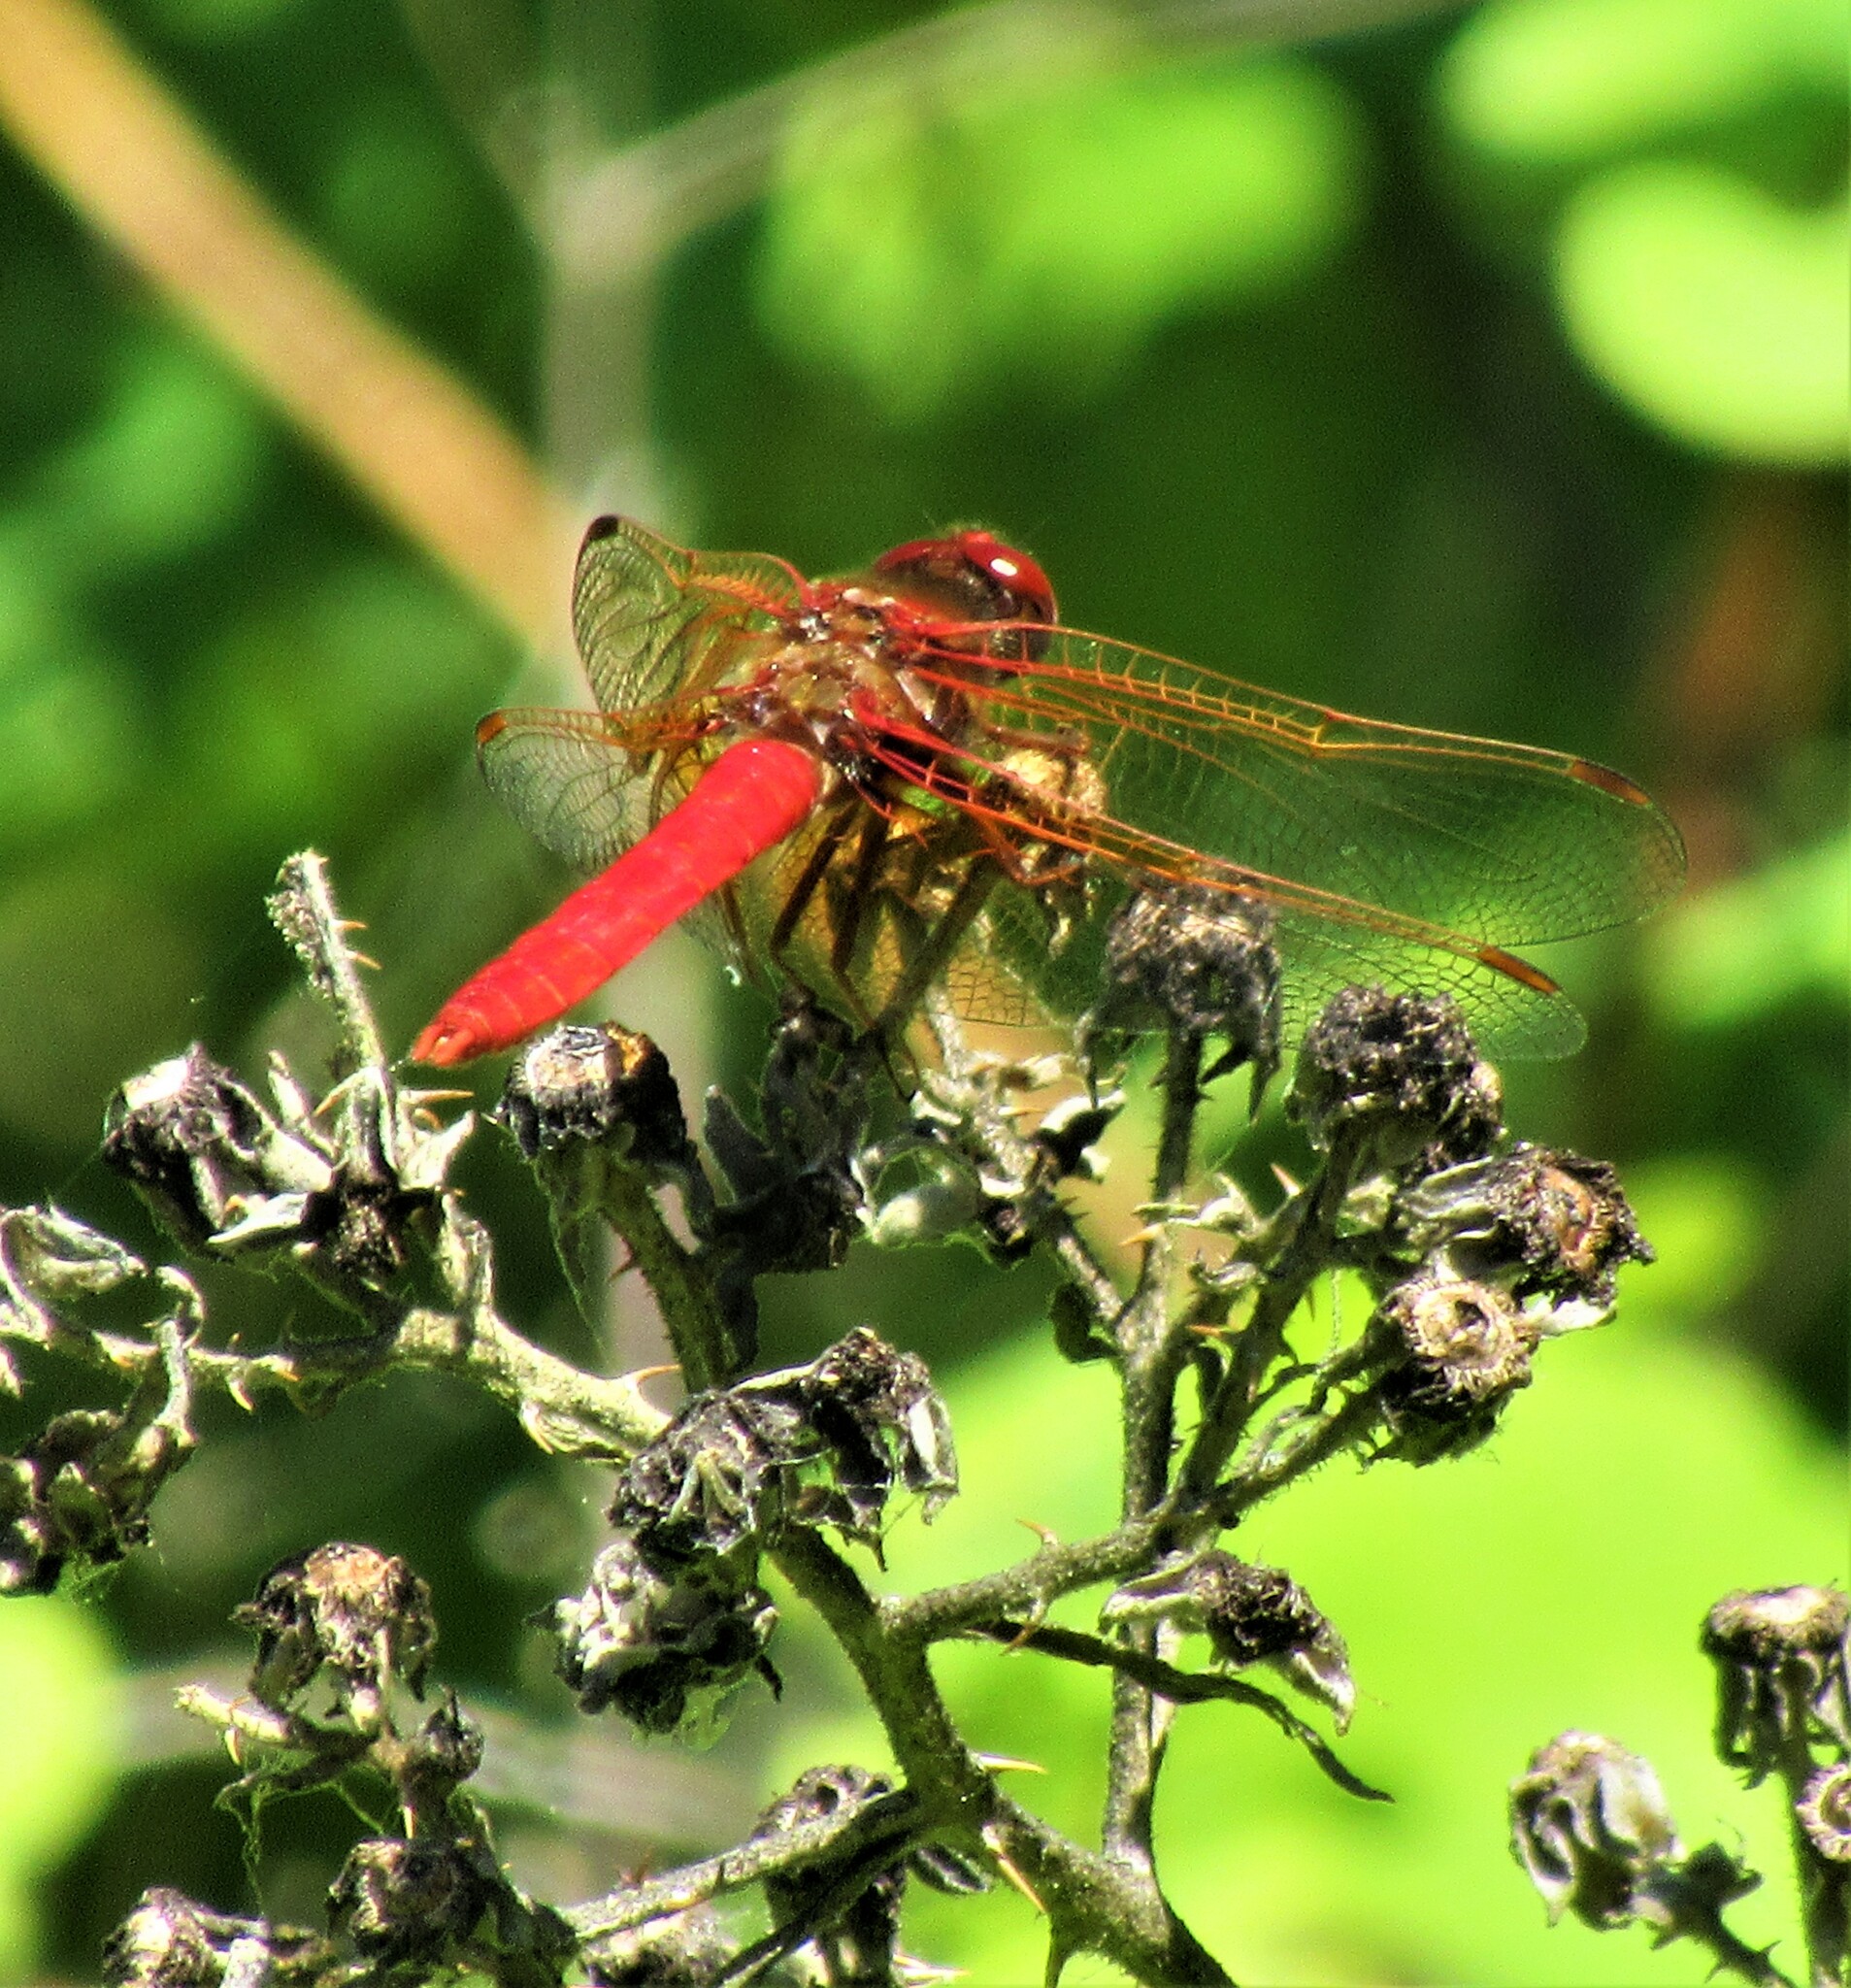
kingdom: Animalia
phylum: Arthropoda
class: Insecta
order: Odonata
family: Libellulidae
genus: Sympetrum
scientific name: Sympetrum illotum
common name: Cardinal meadowhawk
